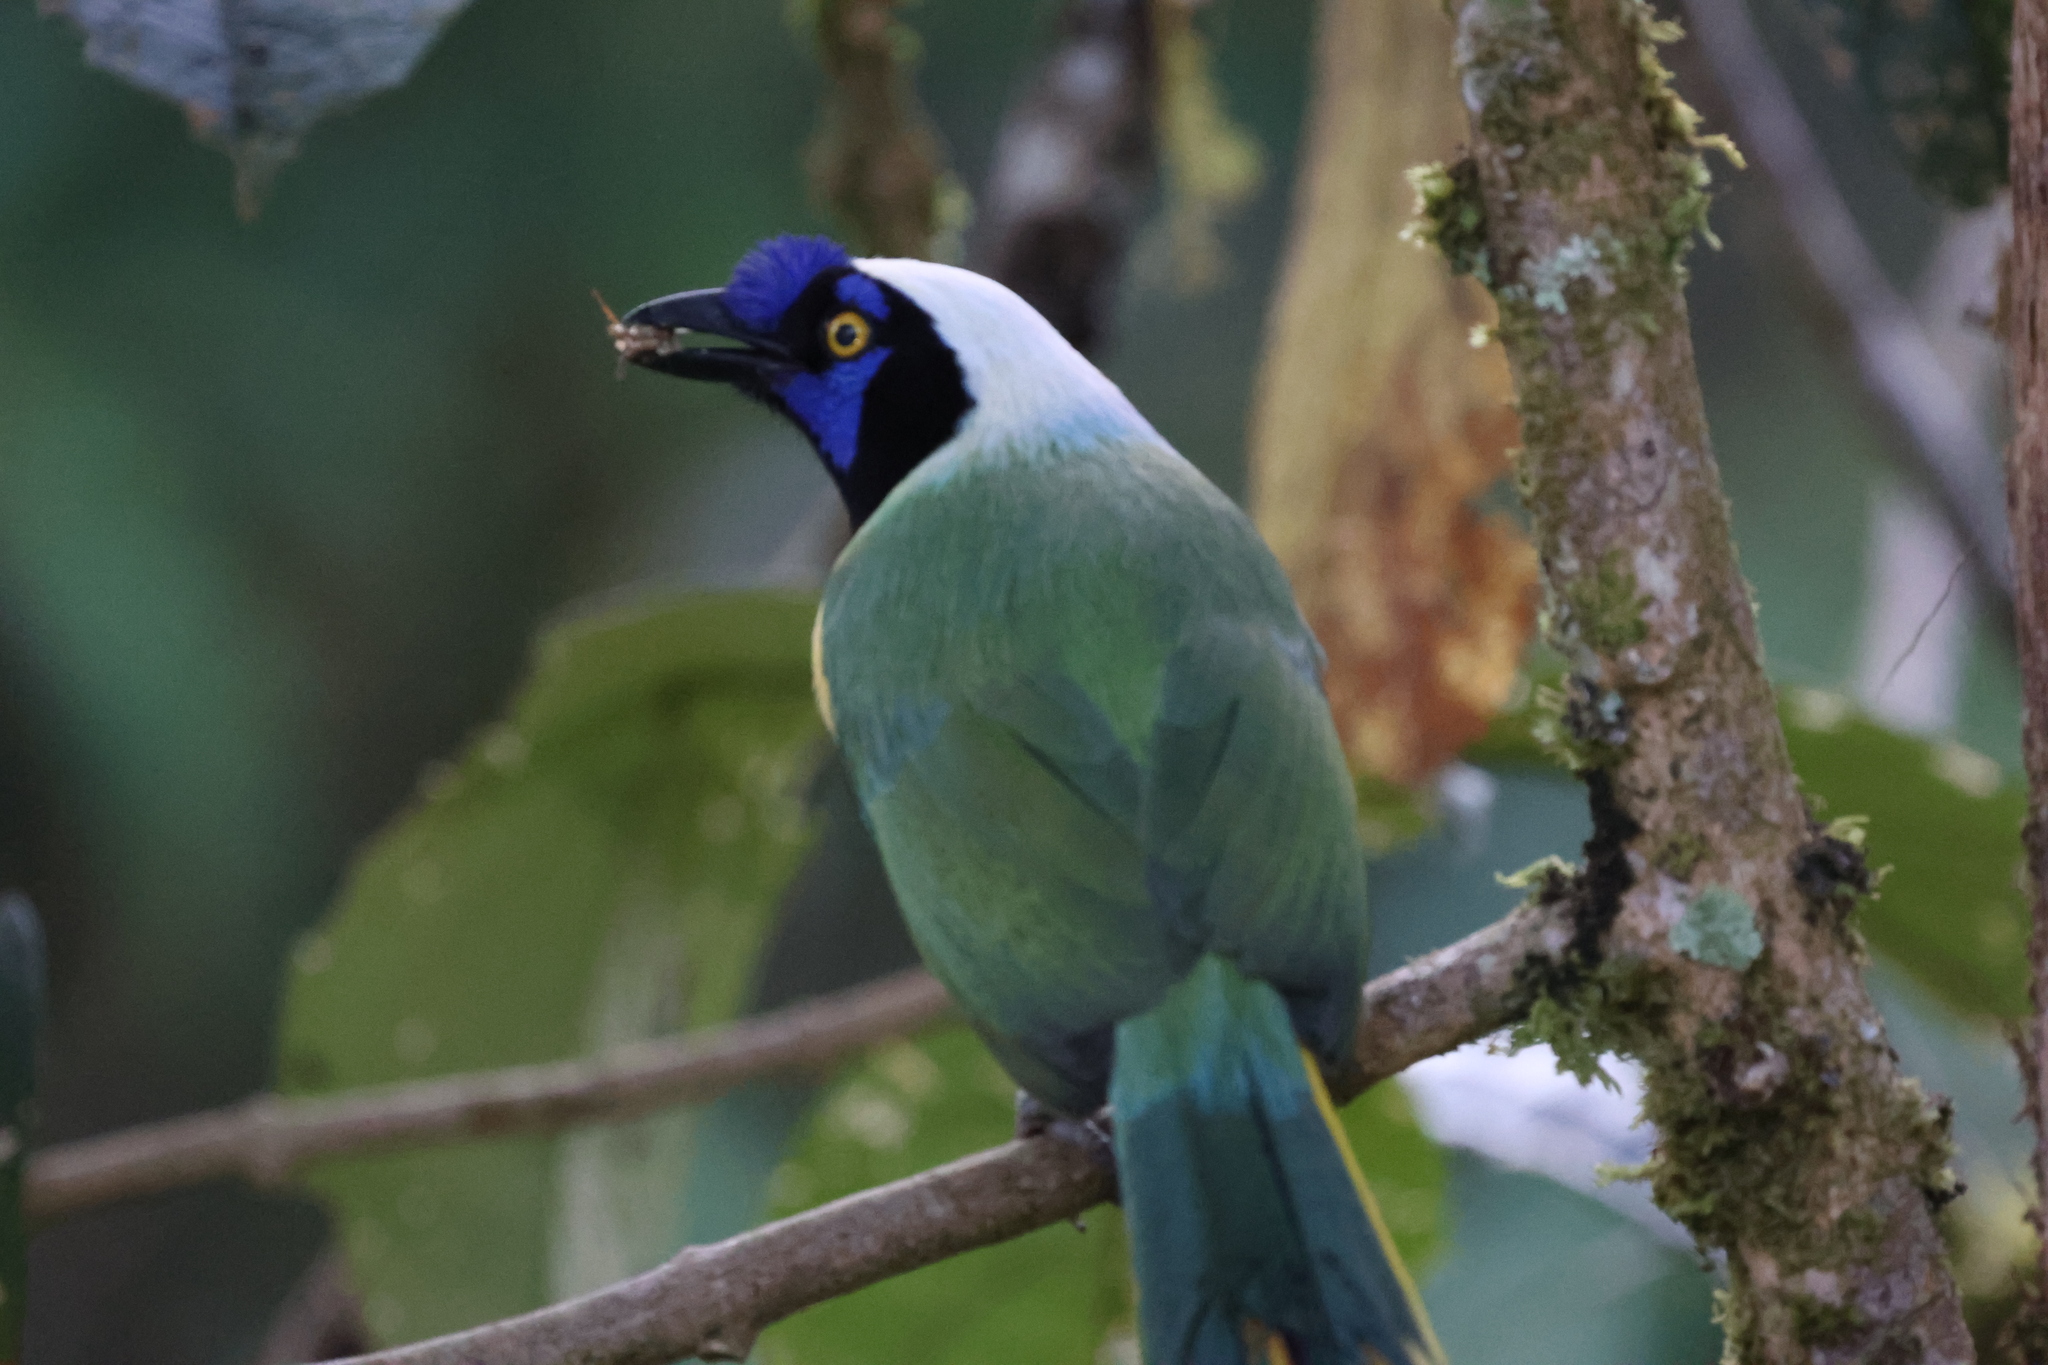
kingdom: Animalia
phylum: Chordata
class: Aves
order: Passeriformes
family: Corvidae
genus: Cyanocorax
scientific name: Cyanocorax yncas
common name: Green jay
